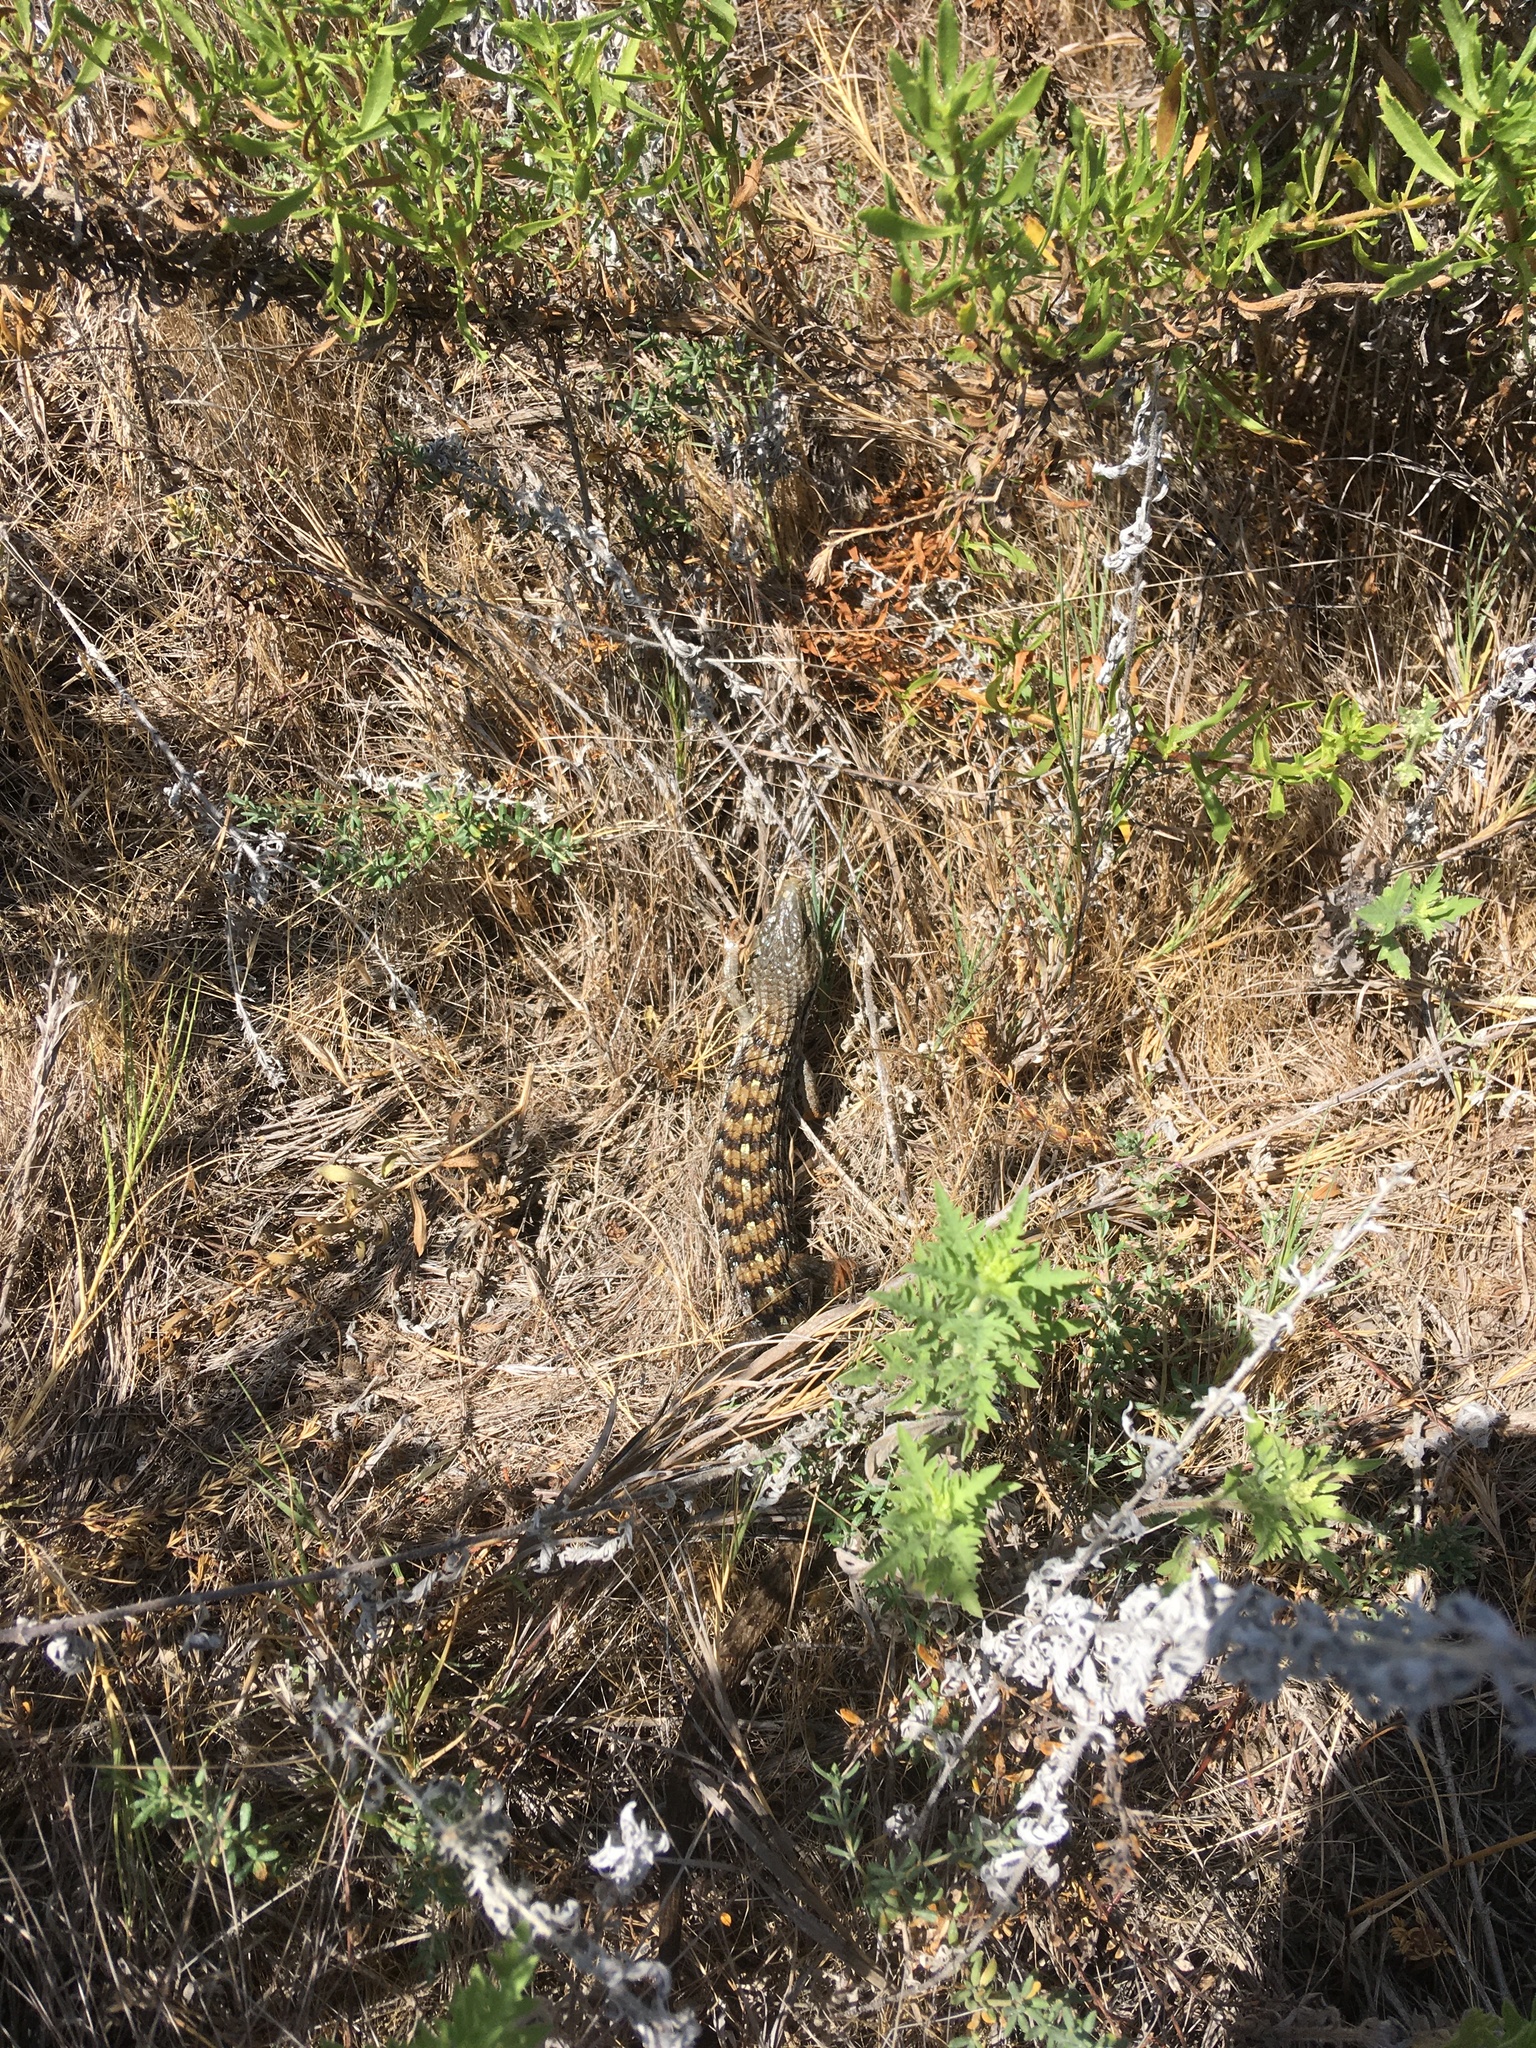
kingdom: Animalia
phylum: Chordata
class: Squamata
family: Anguidae
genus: Elgaria
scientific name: Elgaria multicarinata
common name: Southern alligator lizard
